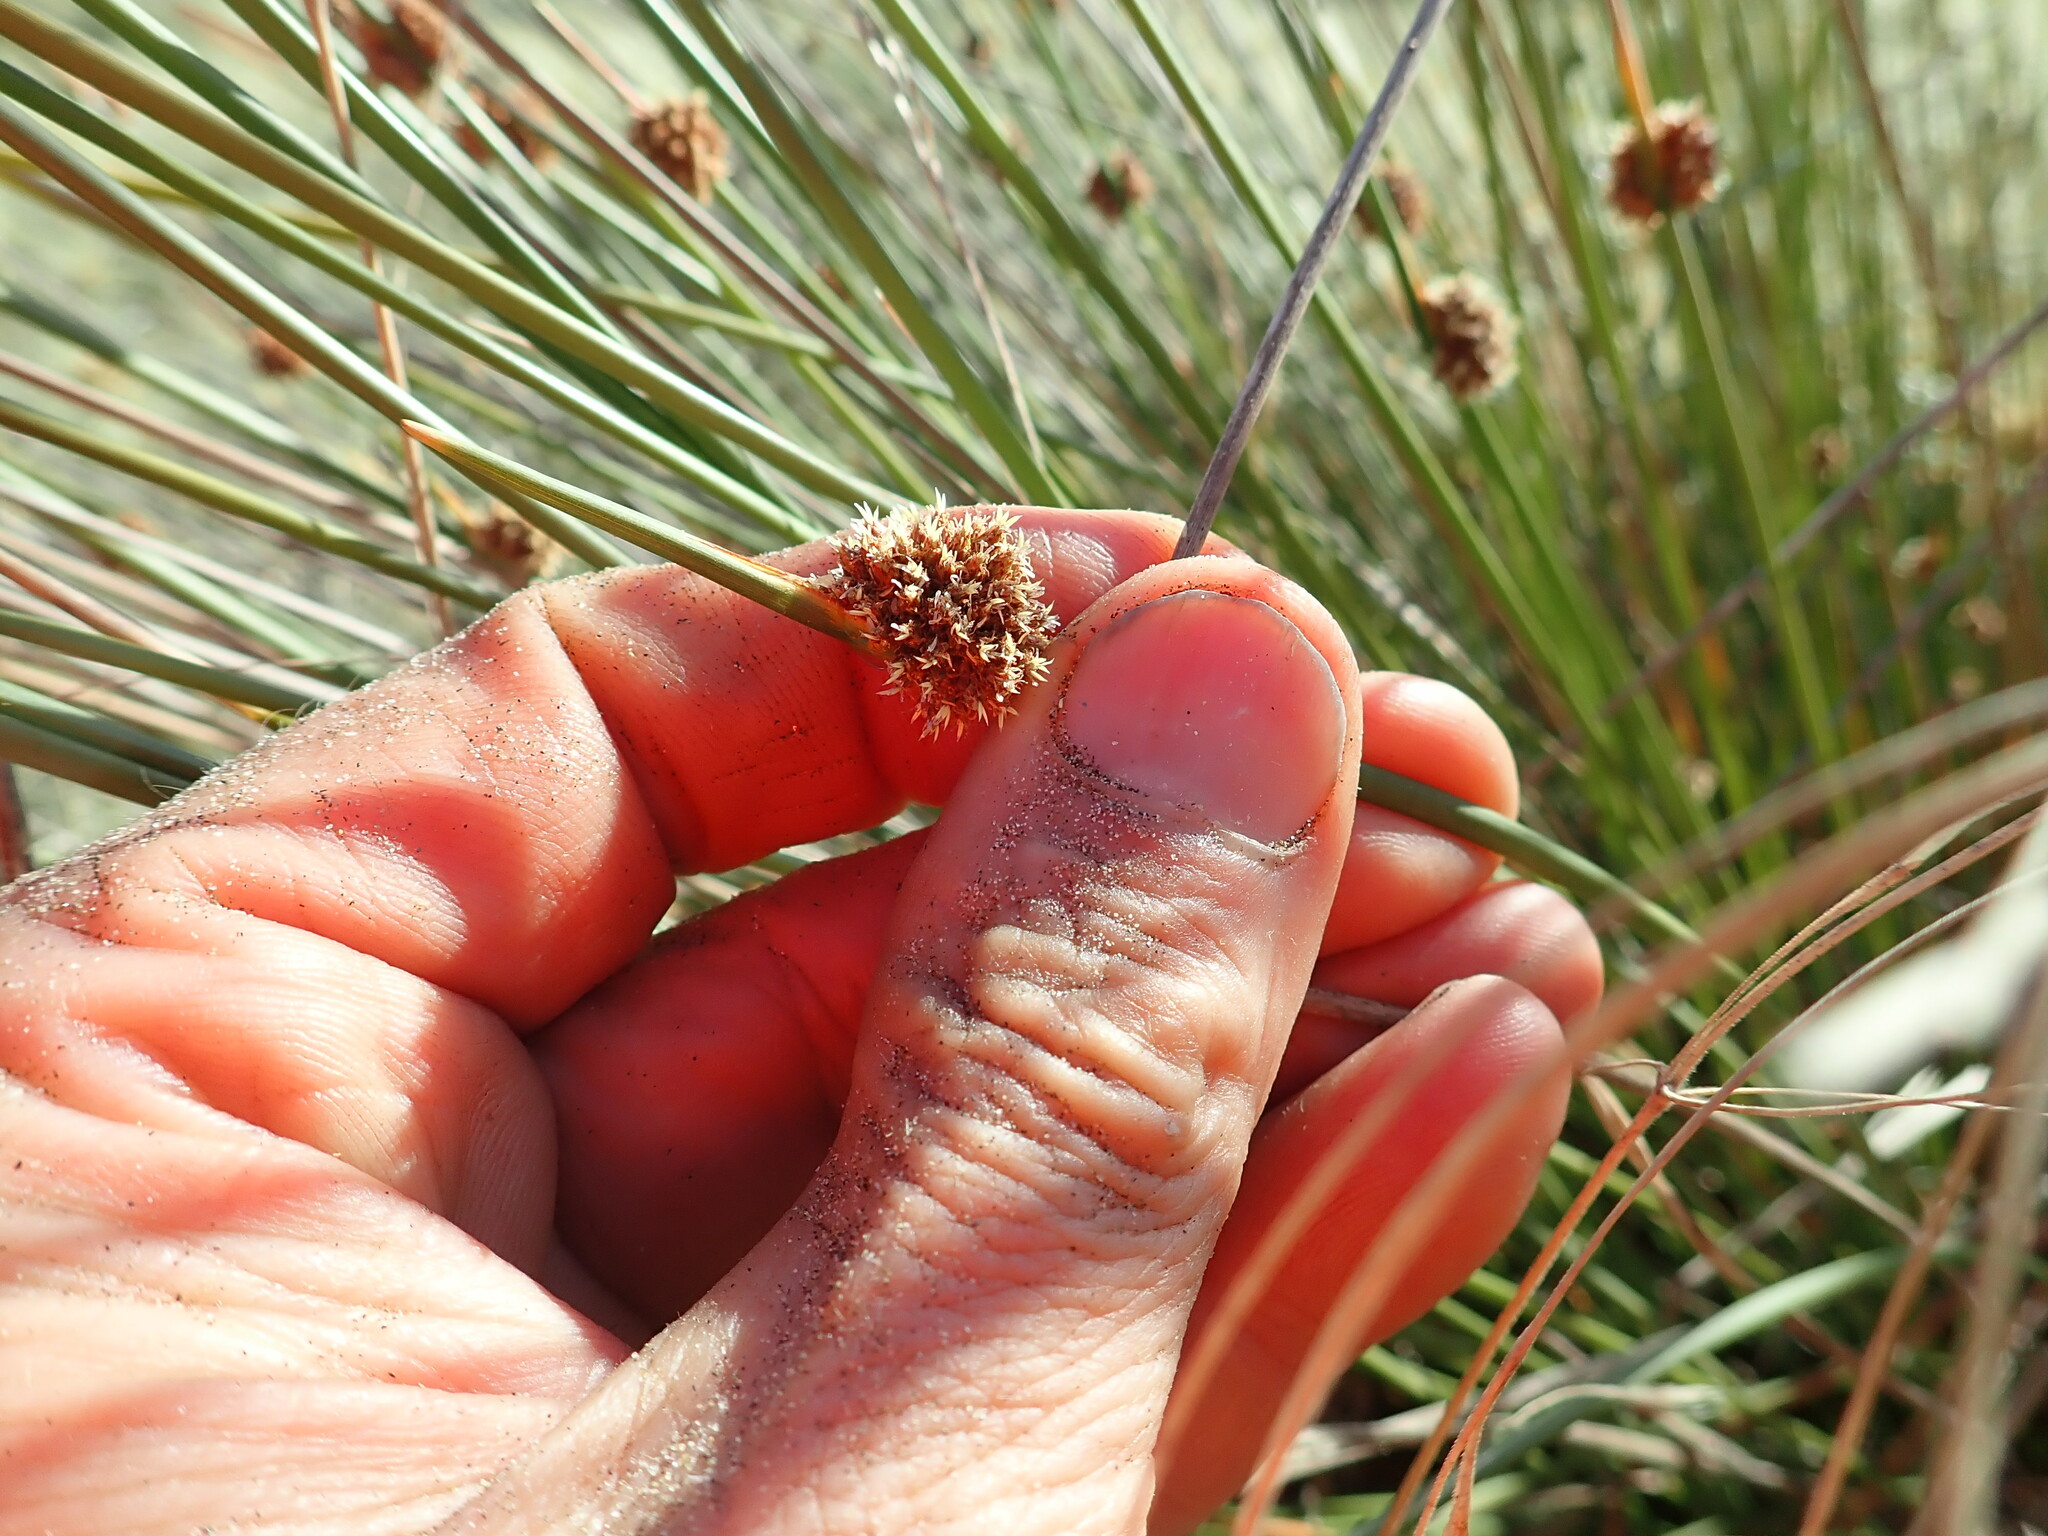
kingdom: Plantae
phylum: Tracheophyta
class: Liliopsida
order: Poales
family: Cyperaceae
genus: Ficinia
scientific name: Ficinia nodosa
